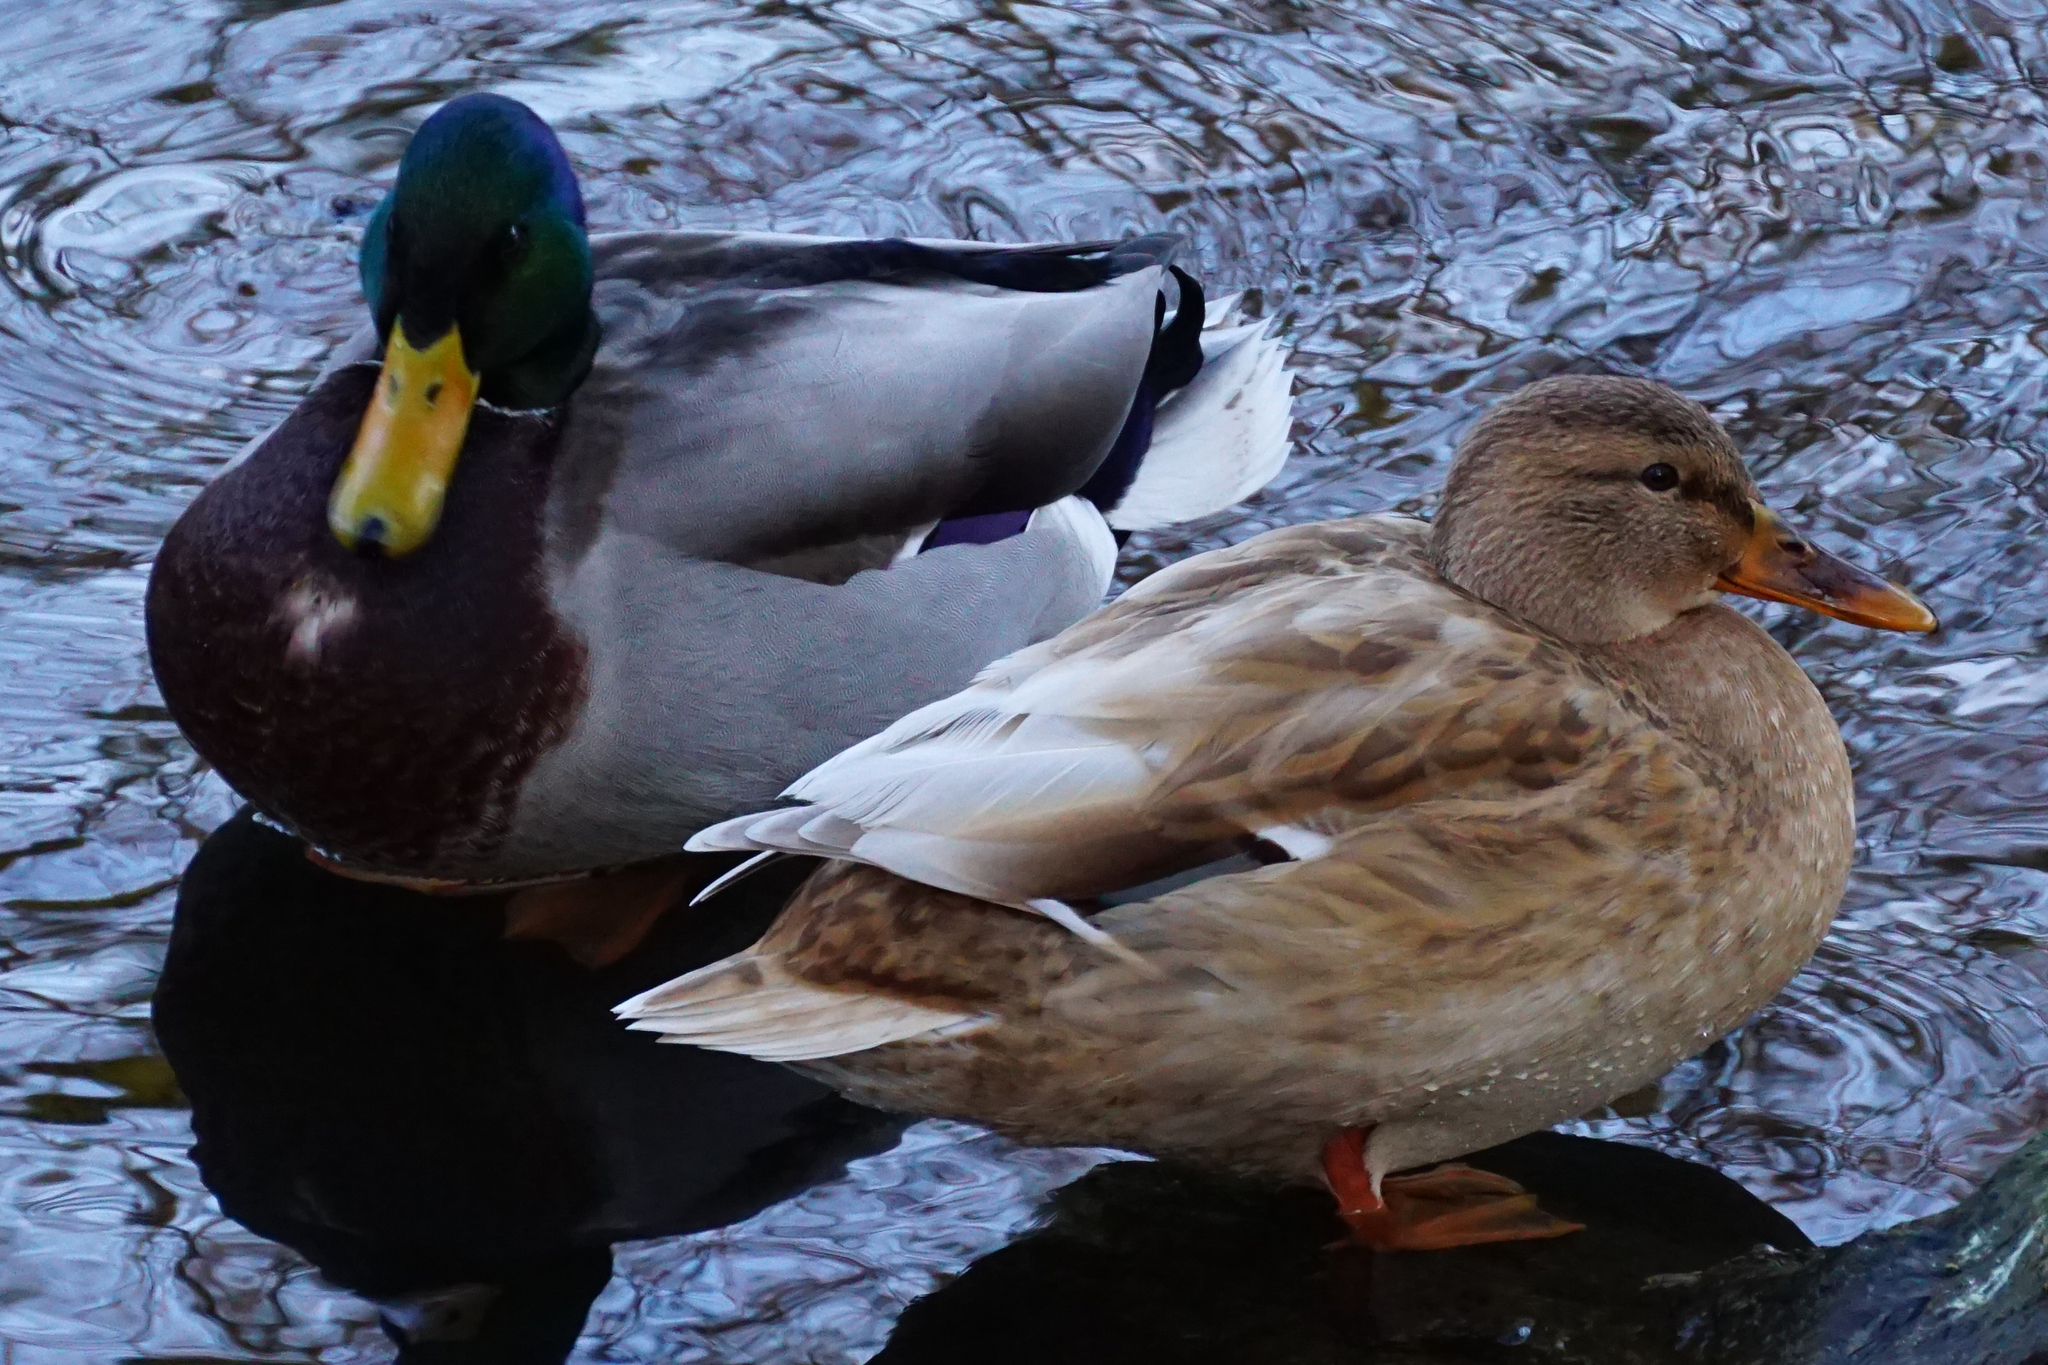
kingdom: Animalia
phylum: Chordata
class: Aves
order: Anseriformes
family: Anatidae
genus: Anas
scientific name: Anas platyrhynchos
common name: Mallard
